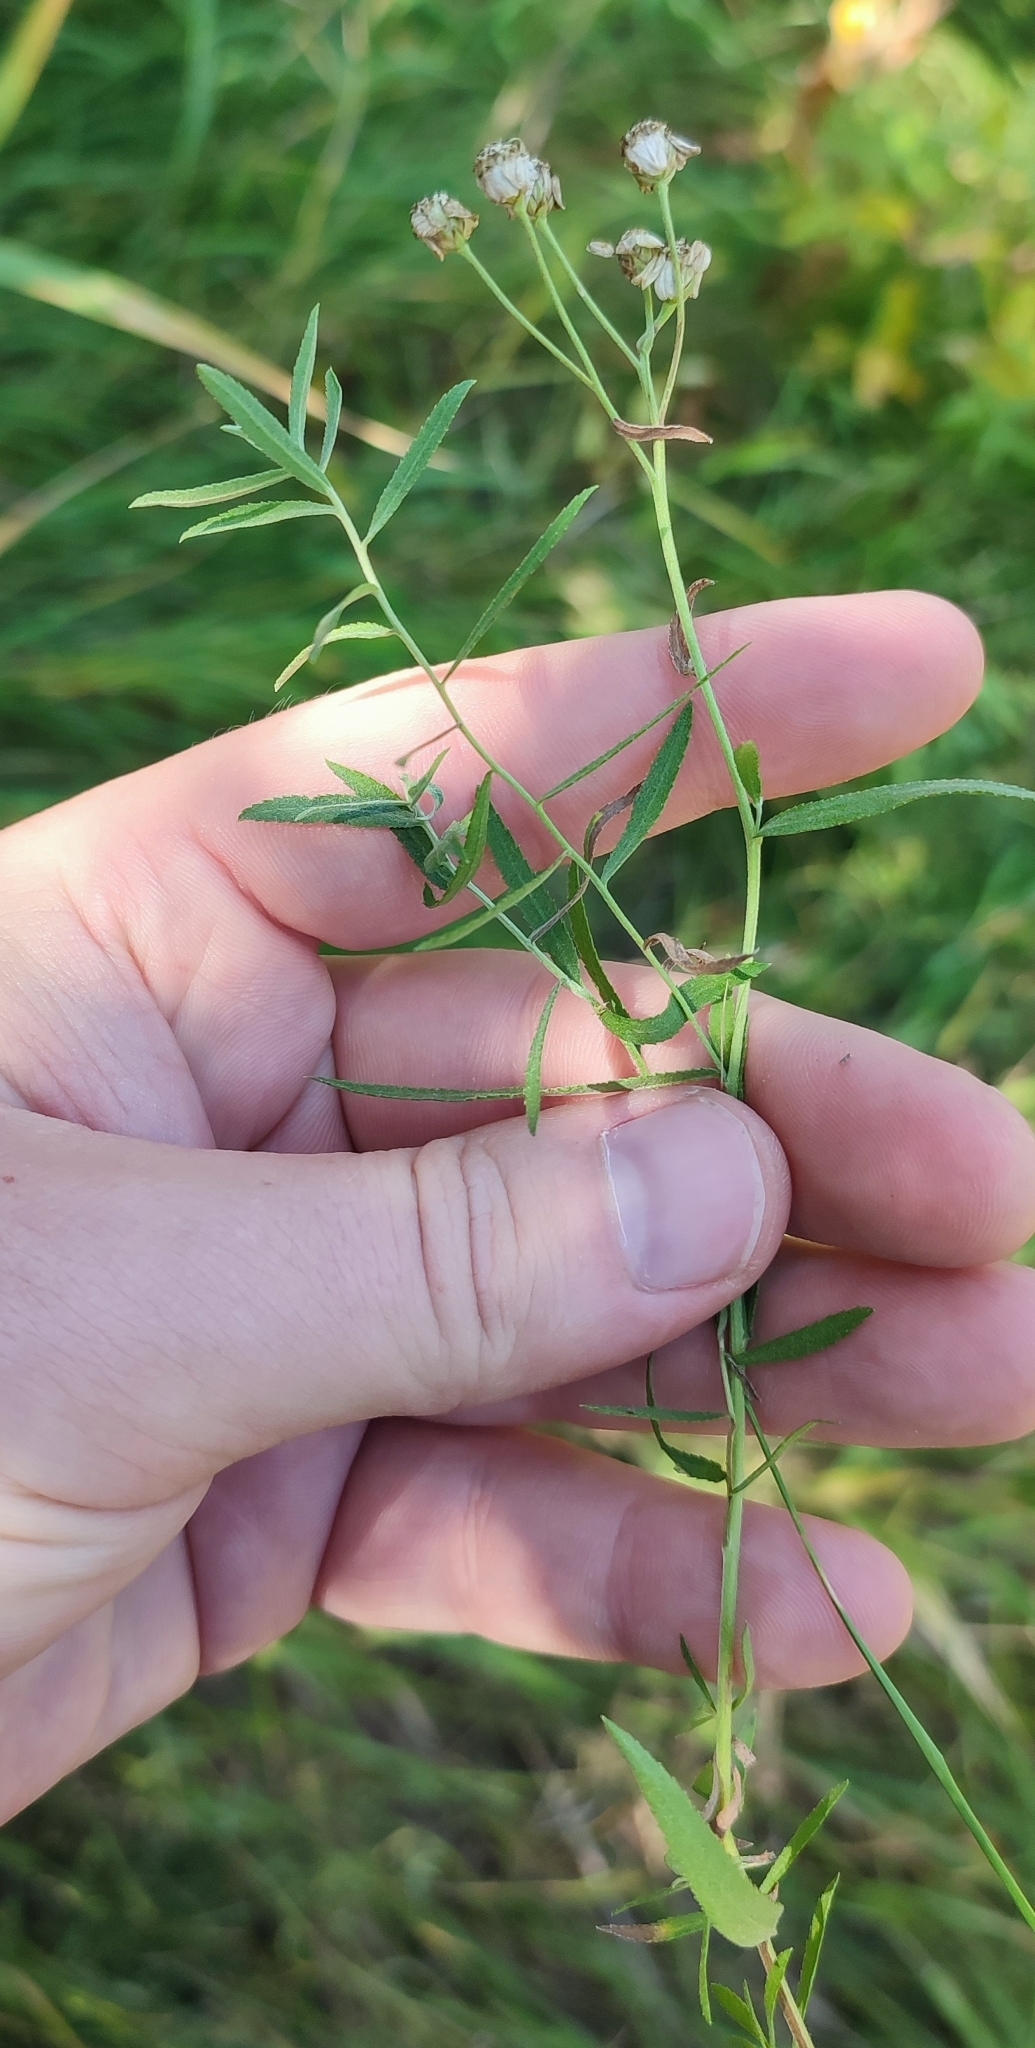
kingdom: Plantae
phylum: Tracheophyta
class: Magnoliopsida
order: Asterales
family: Asteraceae
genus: Achillea
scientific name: Achillea salicifolia
